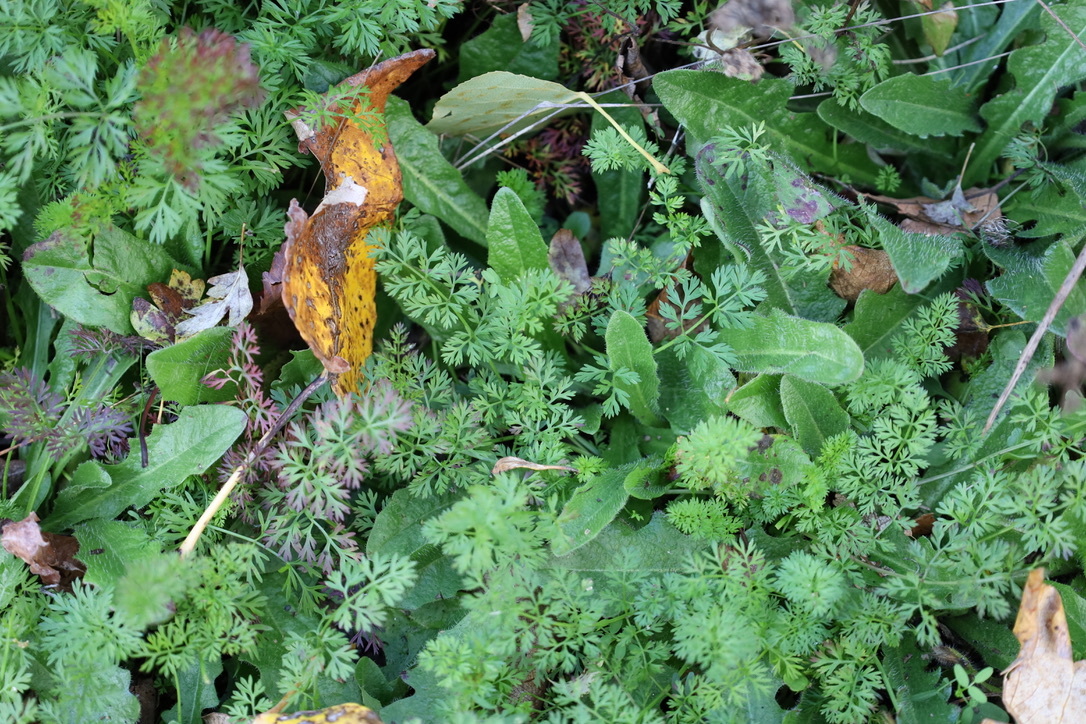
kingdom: Plantae
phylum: Tracheophyta
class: Magnoliopsida
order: Apiales
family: Apiaceae
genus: Daucus
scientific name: Daucus carota
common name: Wild carrot
